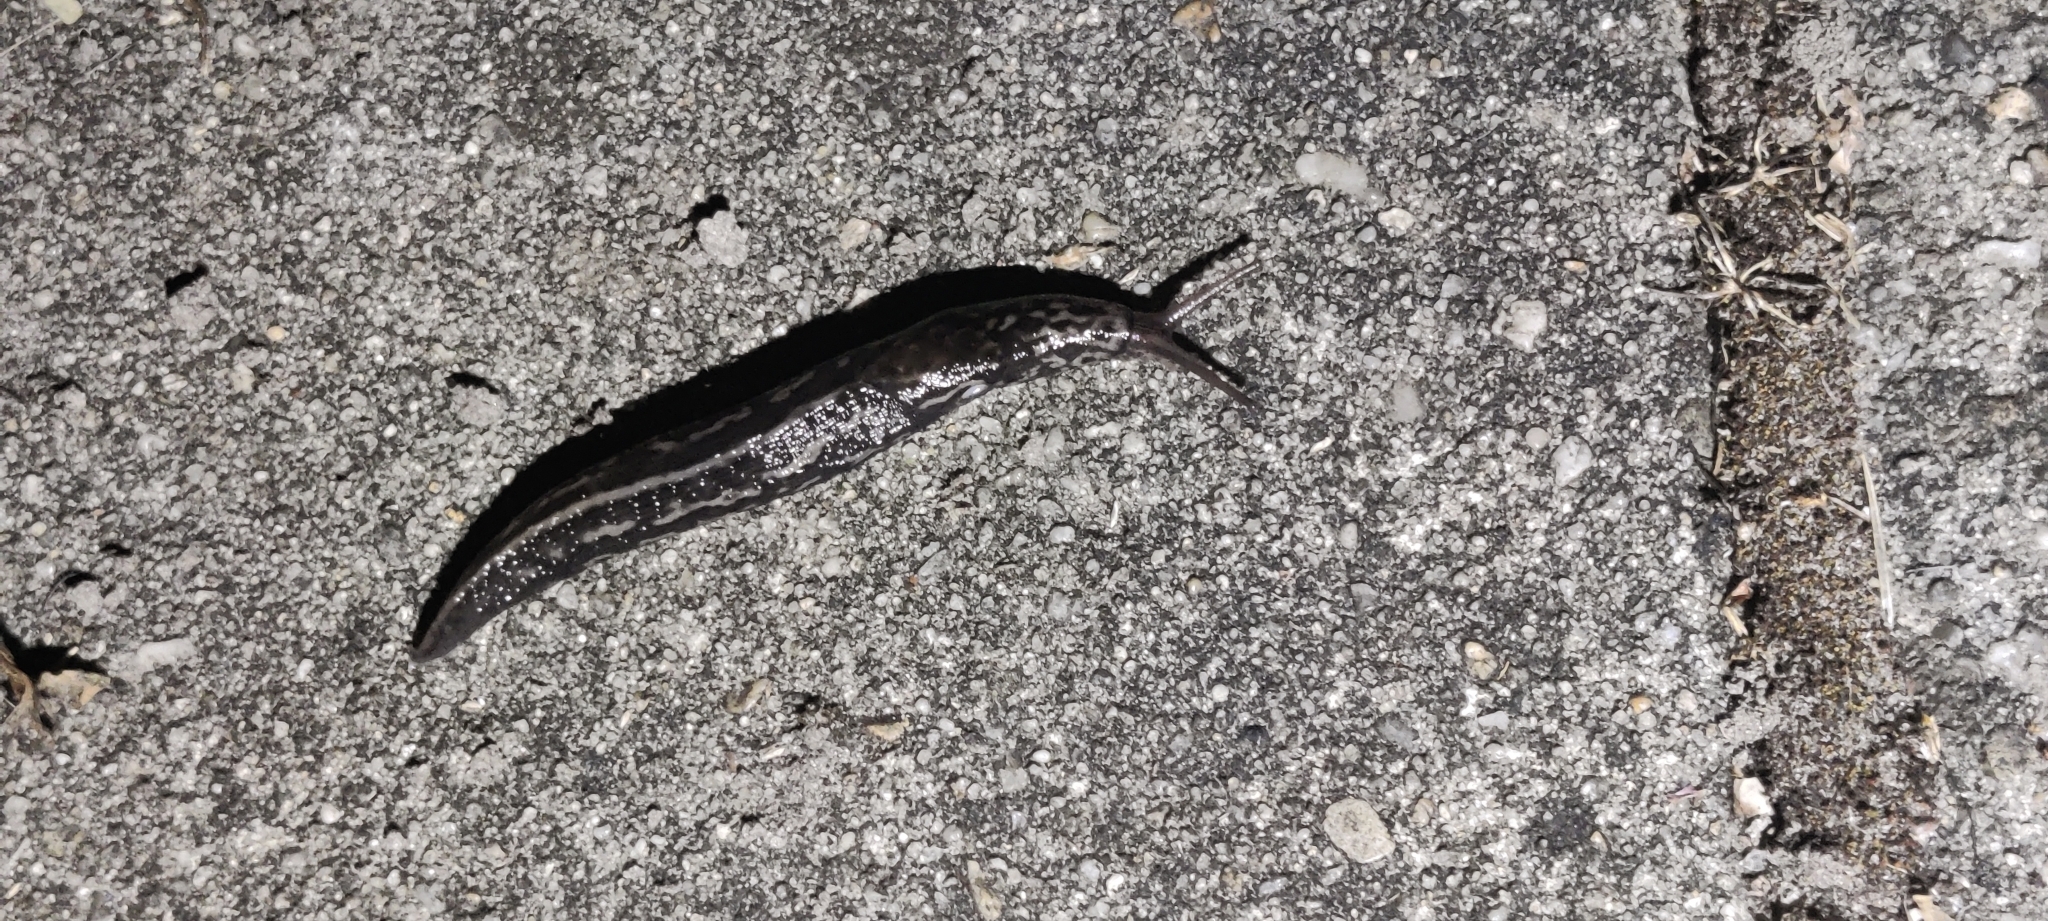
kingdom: Animalia
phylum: Mollusca
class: Gastropoda
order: Stylommatophora
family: Limacidae
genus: Limax
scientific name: Limax maximus
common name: Great grey slug
